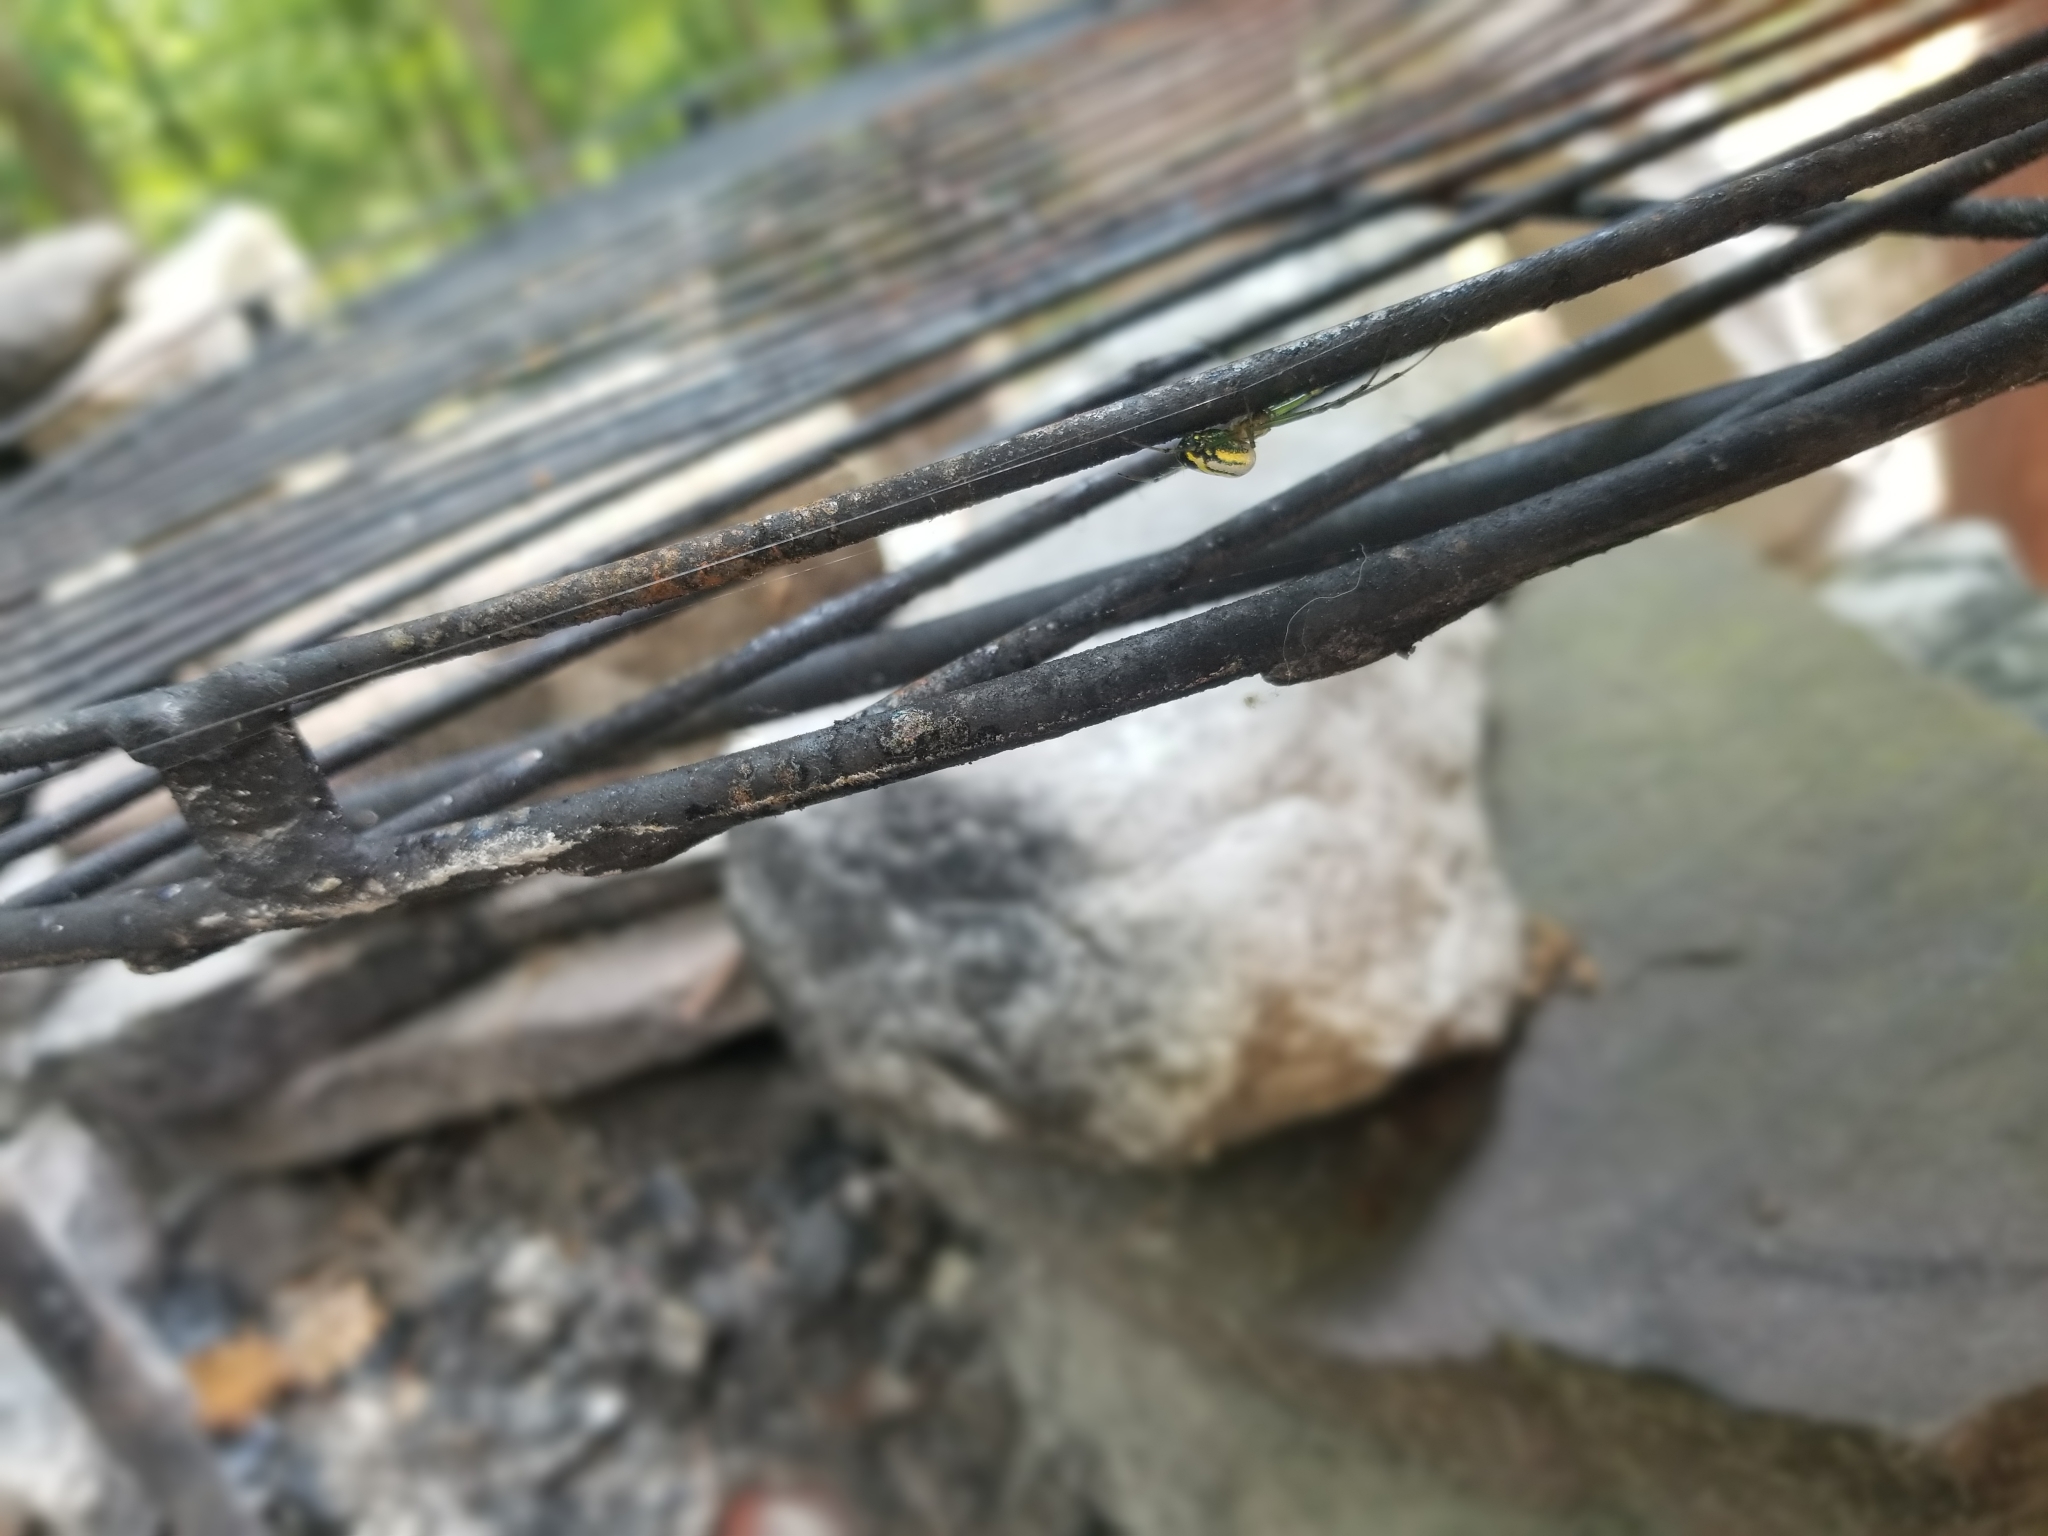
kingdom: Animalia
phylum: Arthropoda
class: Arachnida
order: Araneae
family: Tetragnathidae
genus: Leucauge
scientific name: Leucauge venusta
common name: Longjawed orb weavers
